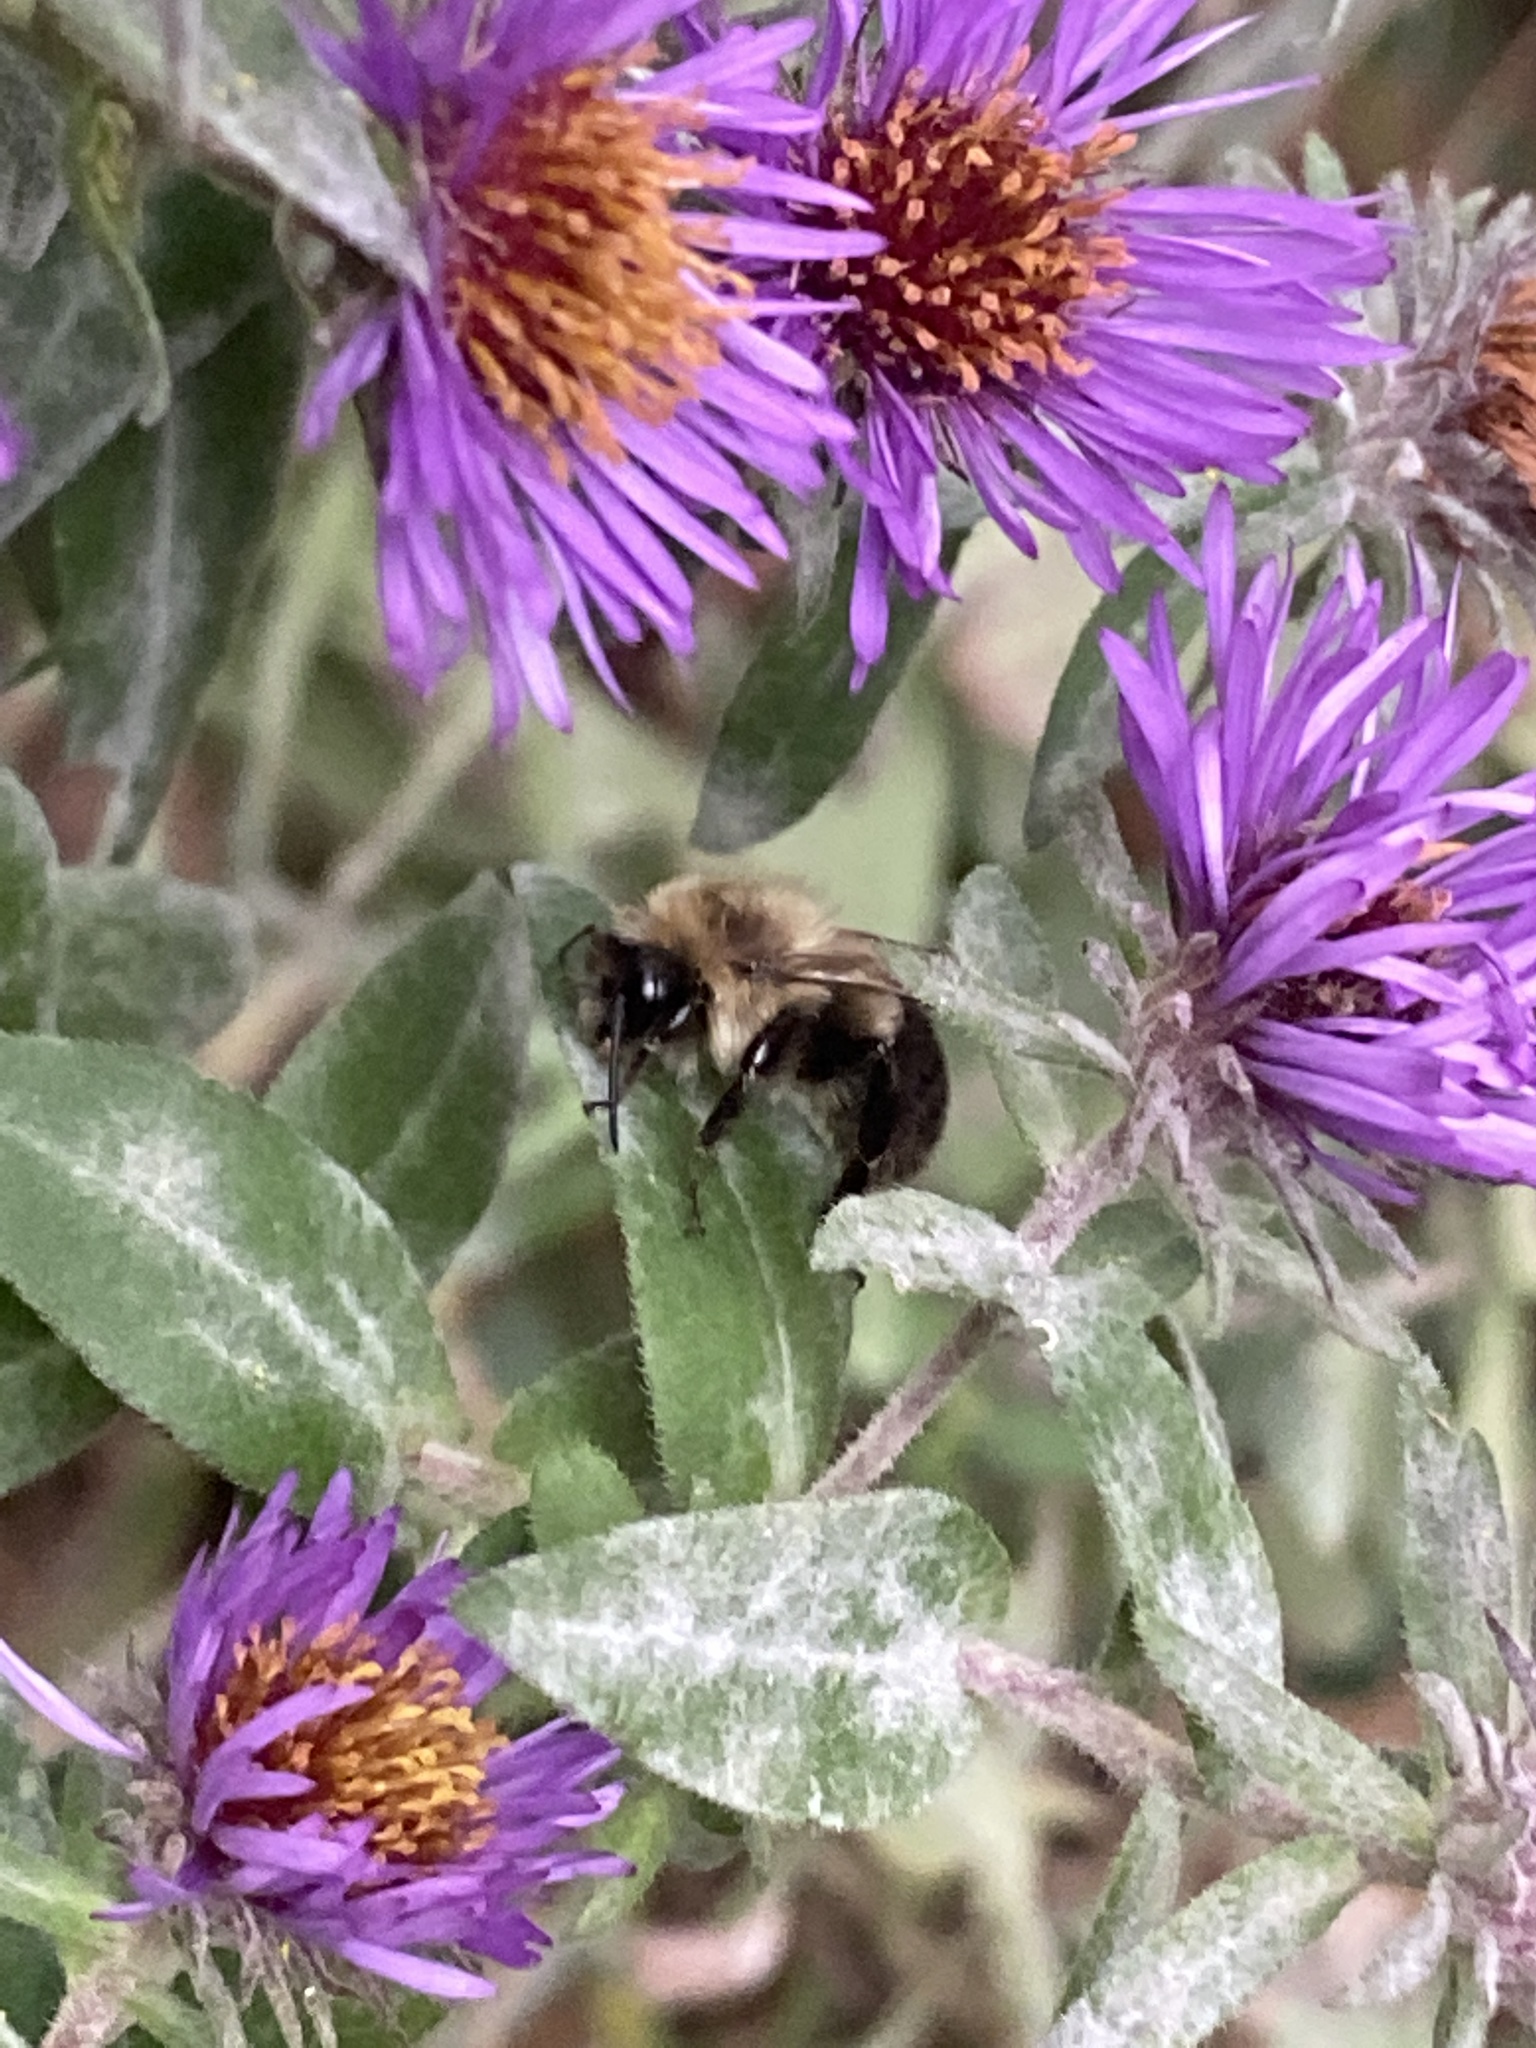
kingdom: Animalia
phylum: Arthropoda
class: Insecta
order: Hymenoptera
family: Apidae
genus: Bombus
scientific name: Bombus impatiens
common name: Common eastern bumble bee
